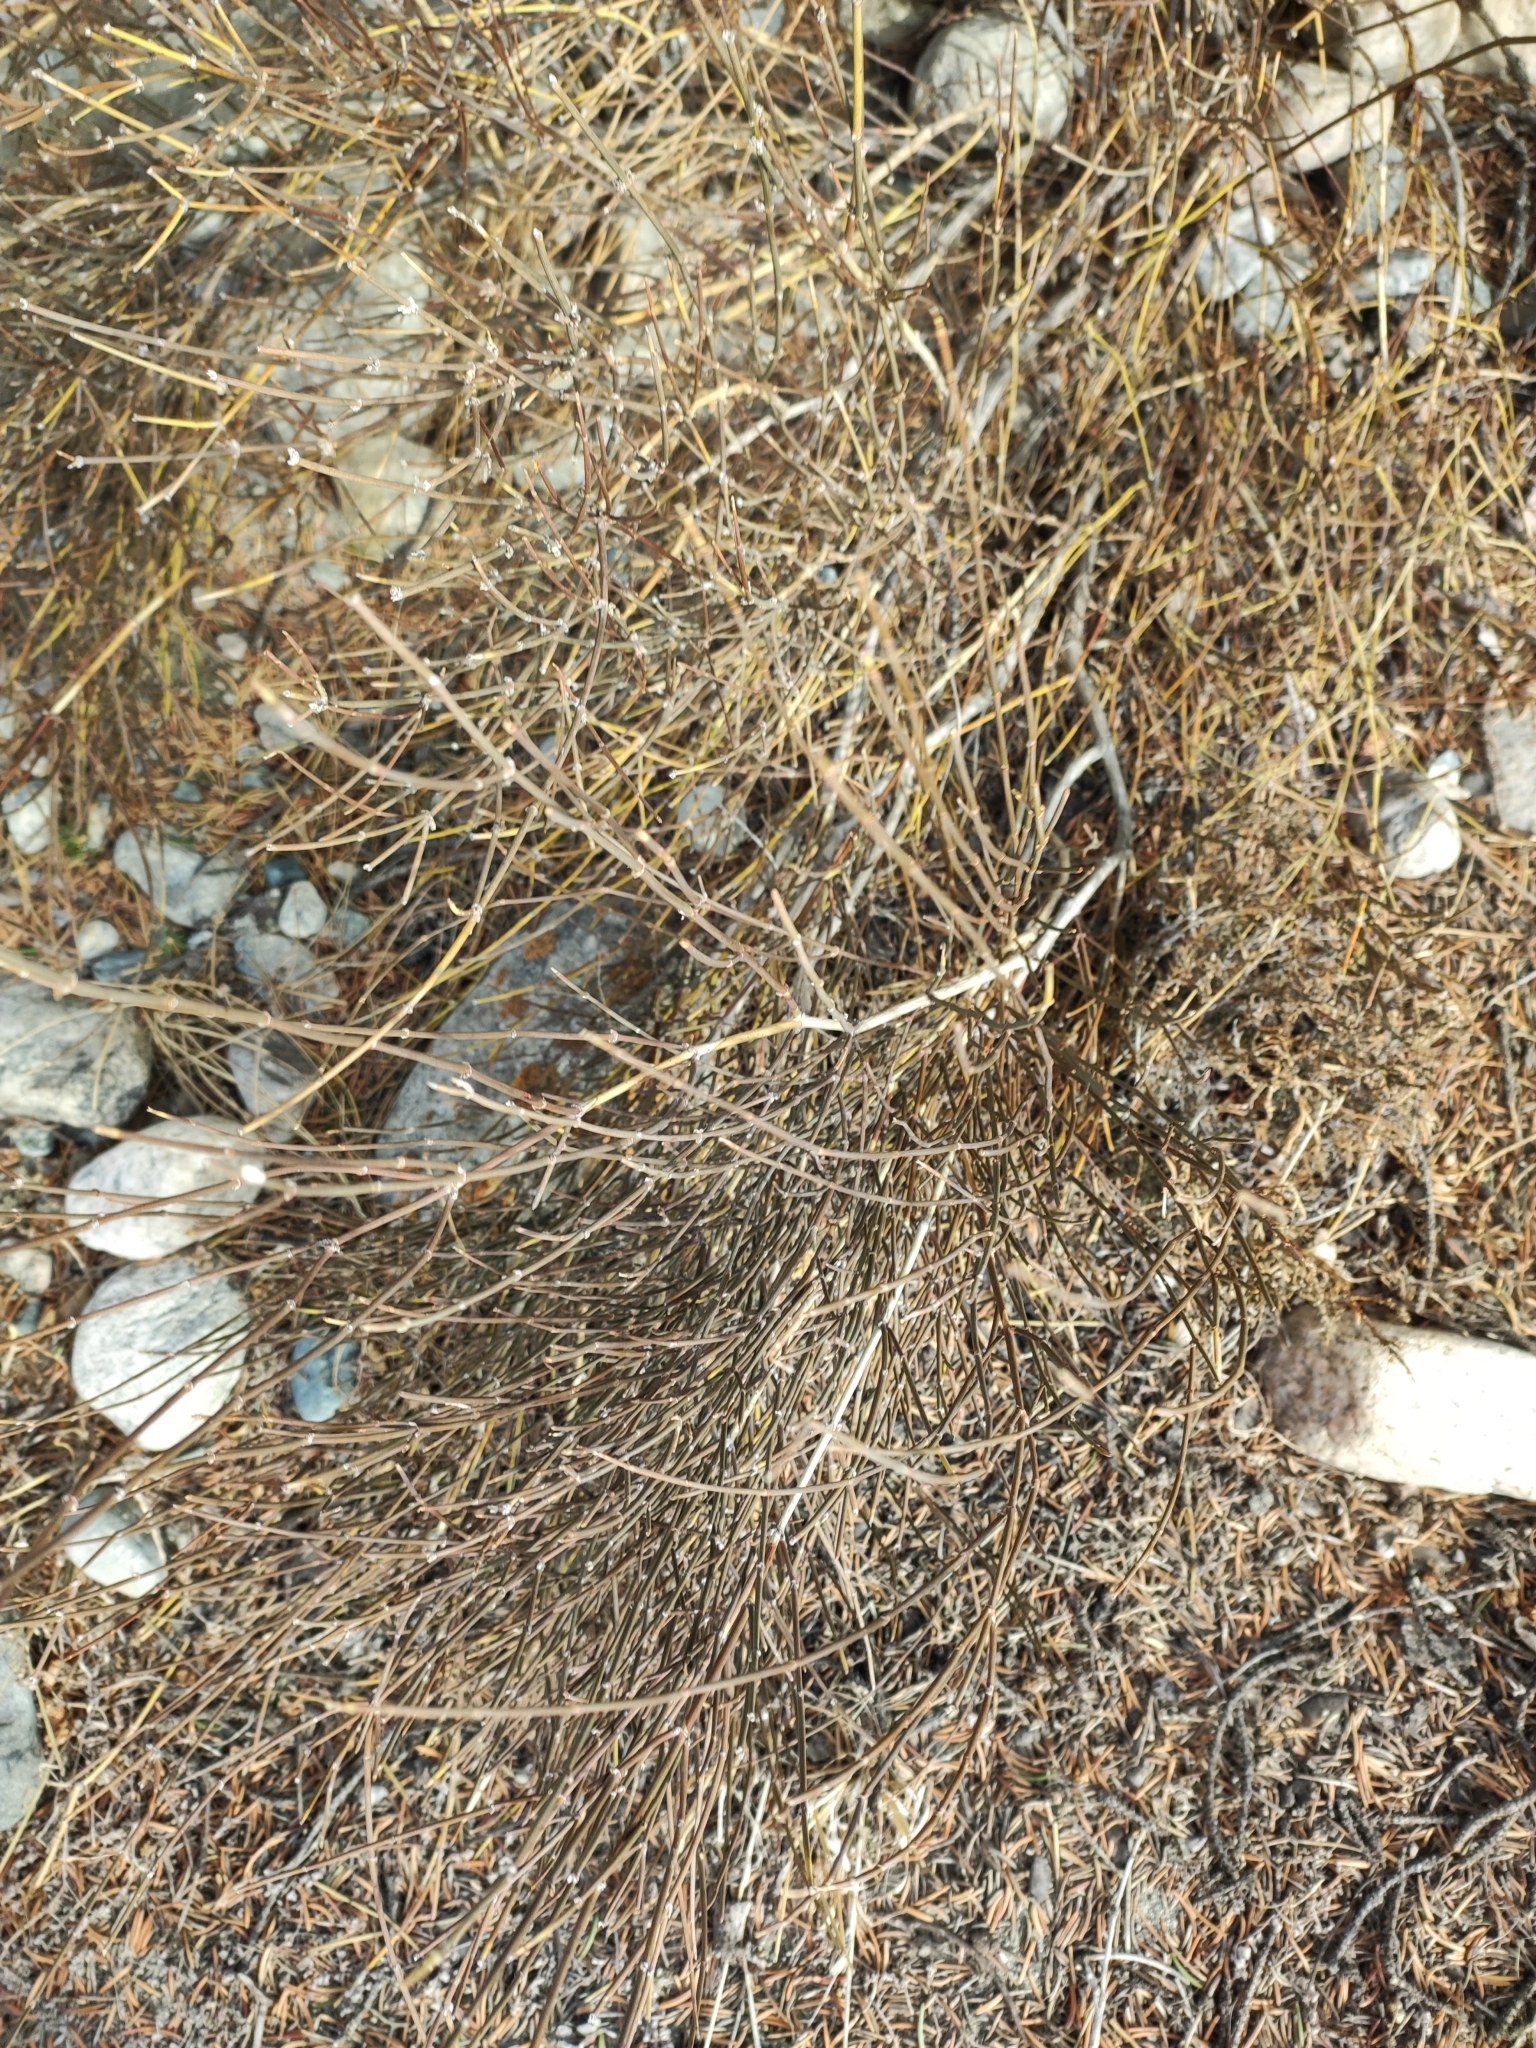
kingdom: Plantae
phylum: Tracheophyta
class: Gnetopsida
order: Ephedrales
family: Ephedraceae
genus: Ephedra
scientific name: Ephedra equisetina
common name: Mongolian ephedra
